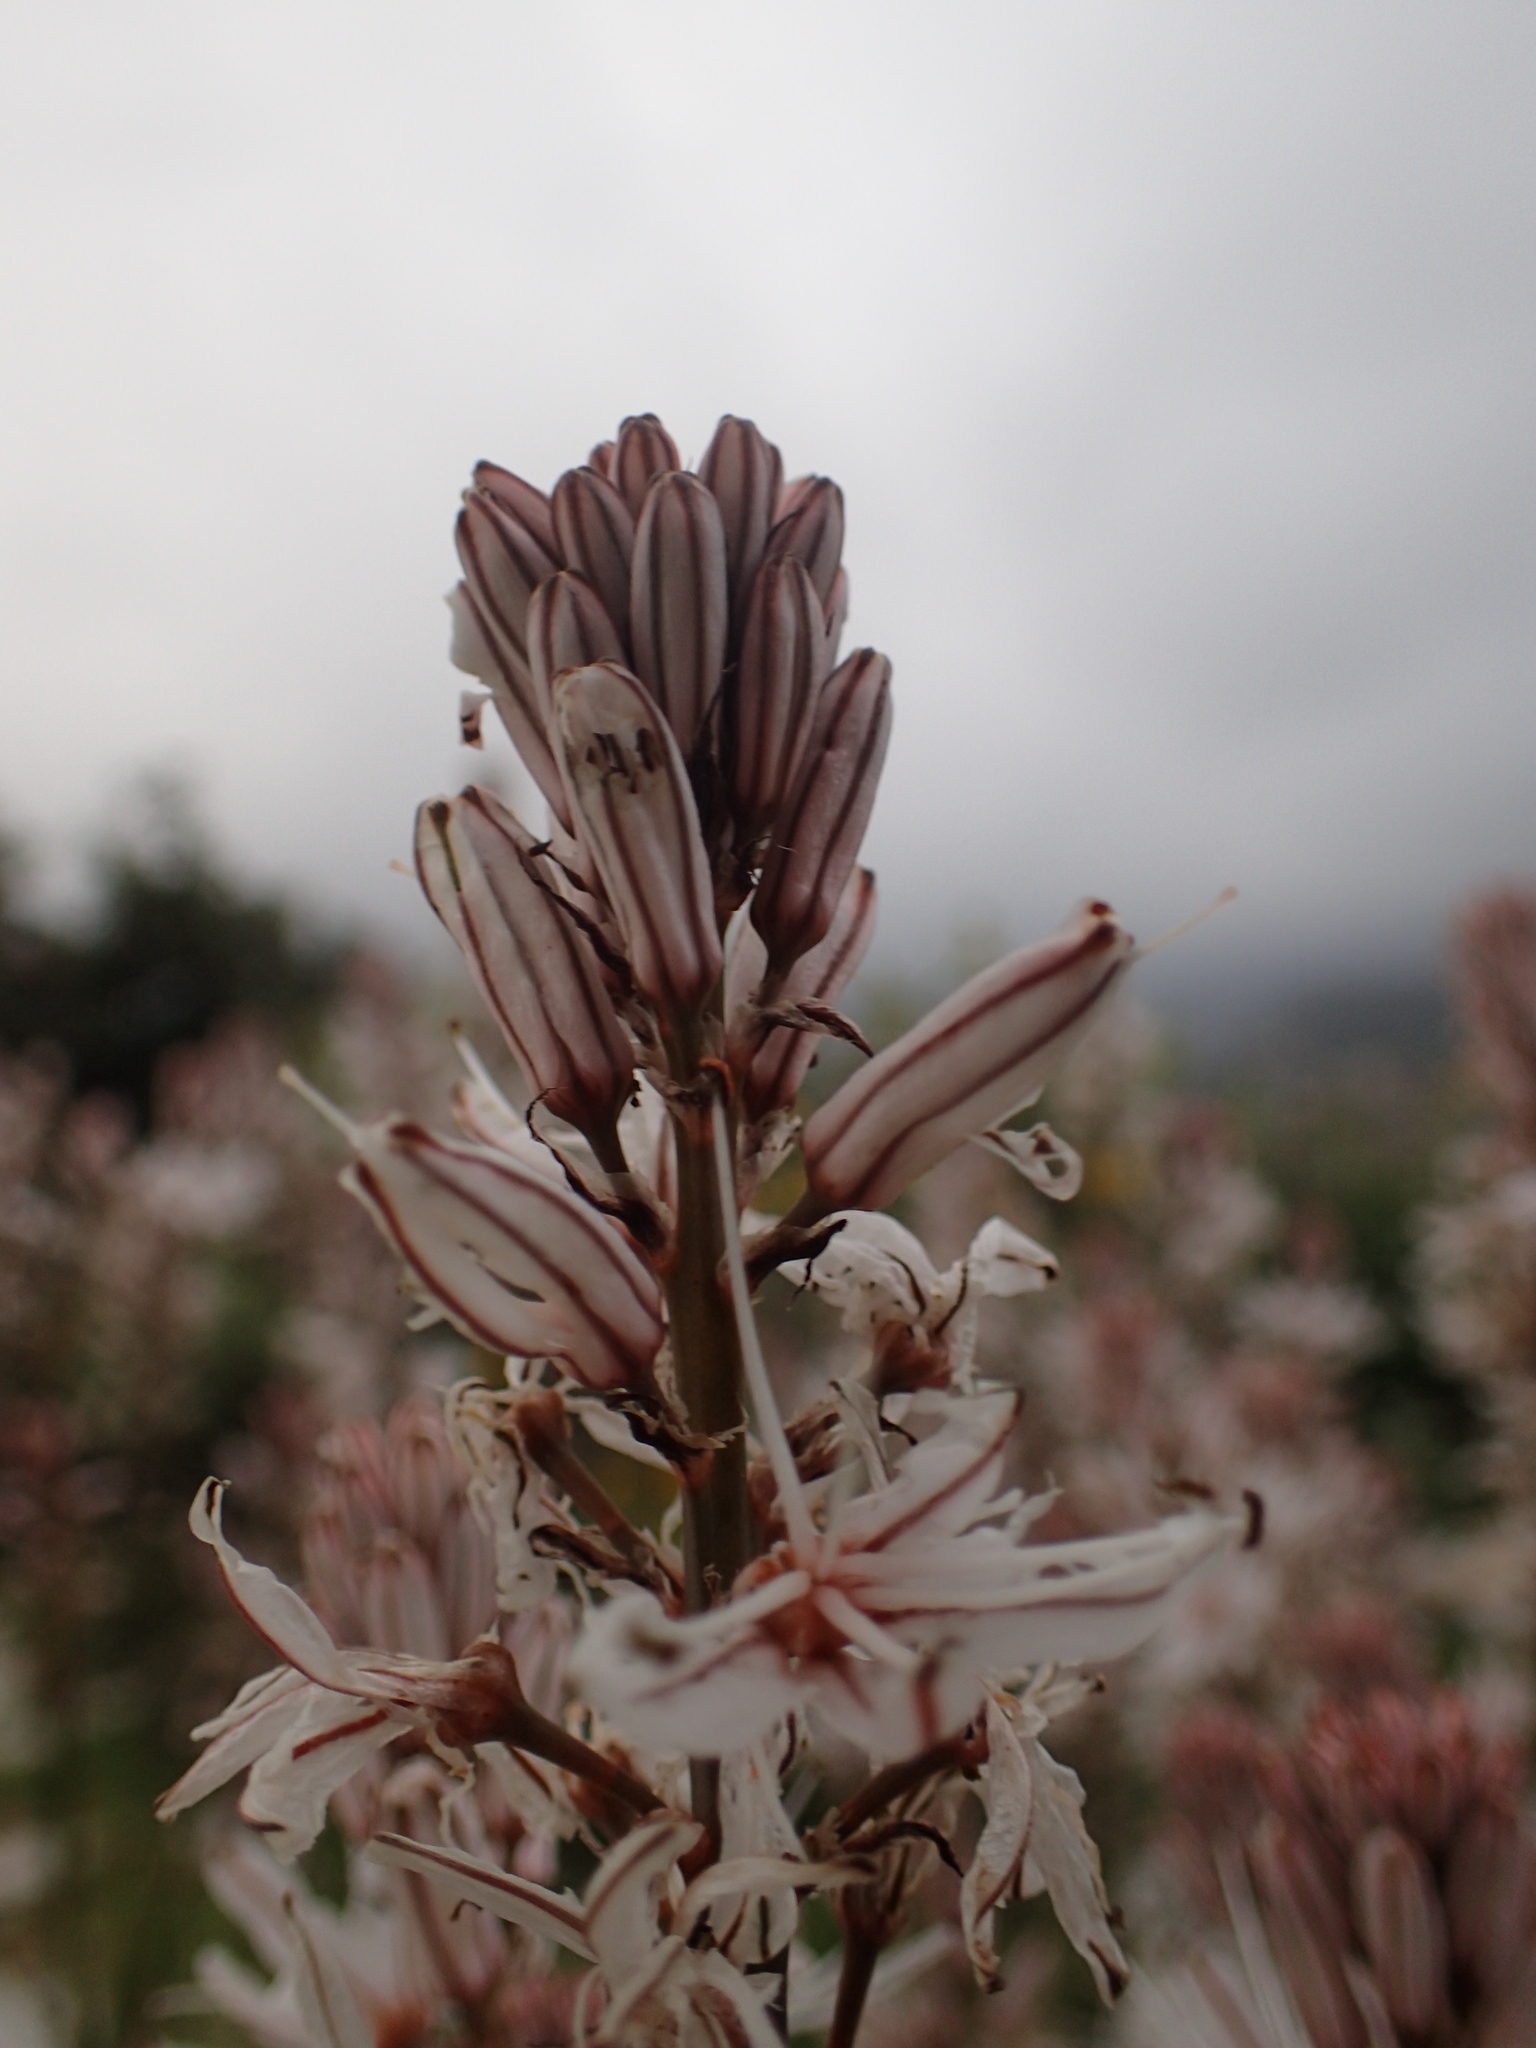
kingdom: Plantae
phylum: Tracheophyta
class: Liliopsida
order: Asparagales
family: Asphodelaceae
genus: Asphodelus
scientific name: Asphodelus ramosus
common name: Silverrod
